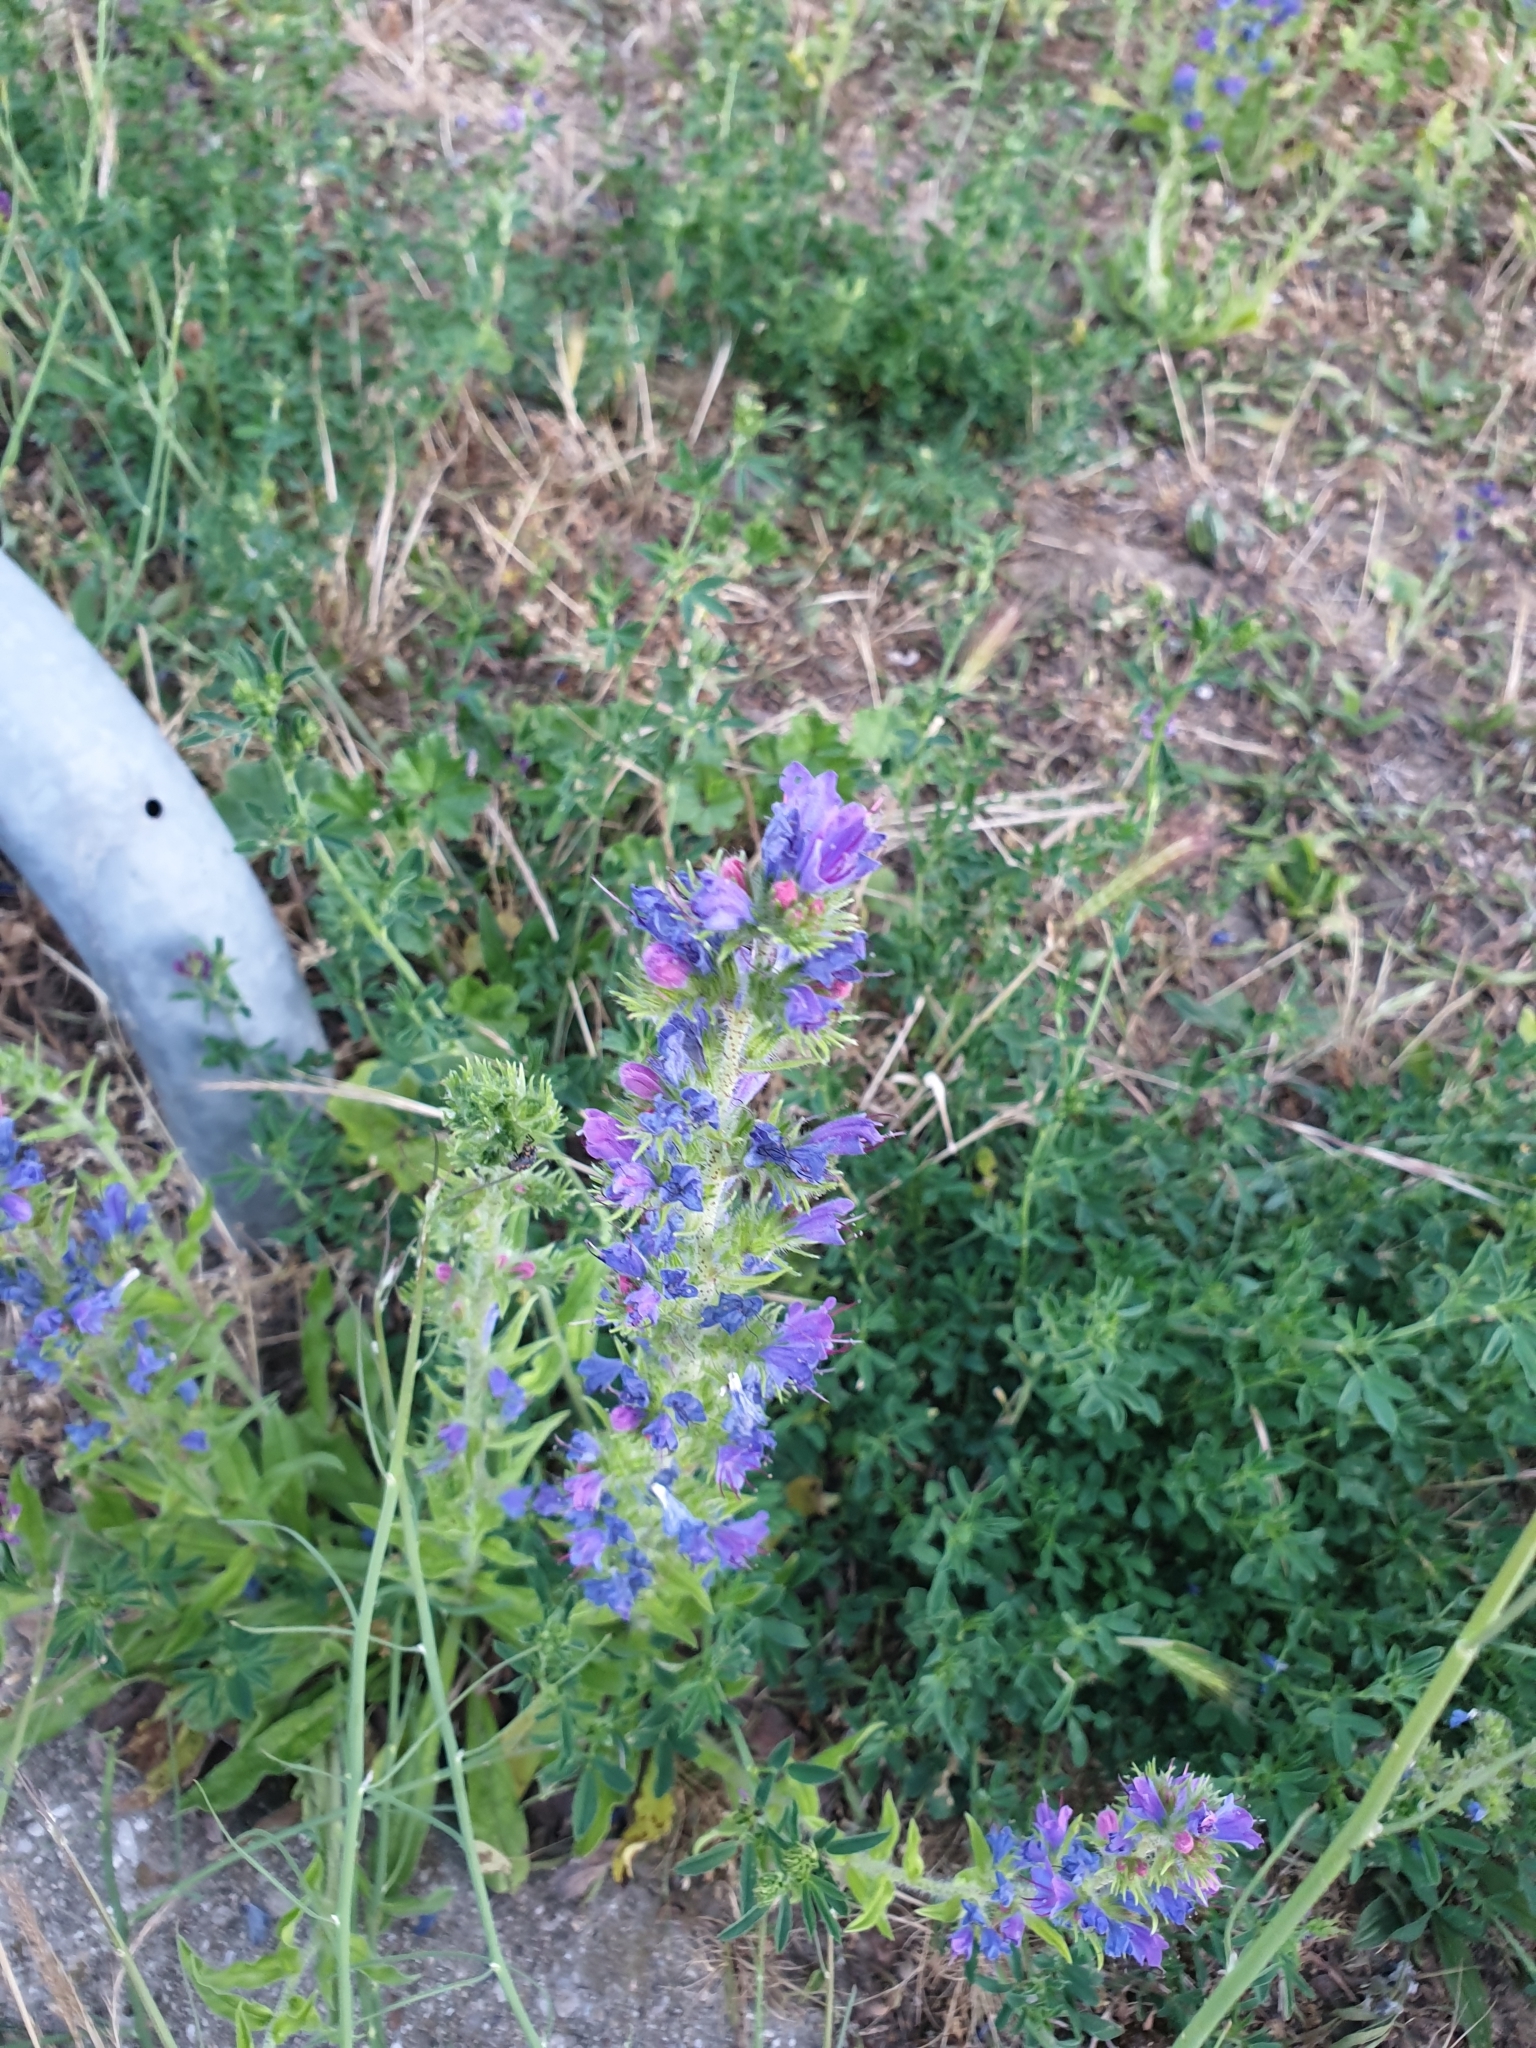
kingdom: Plantae
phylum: Tracheophyta
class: Magnoliopsida
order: Boraginales
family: Boraginaceae
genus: Echium
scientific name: Echium vulgare
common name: Common viper's bugloss
